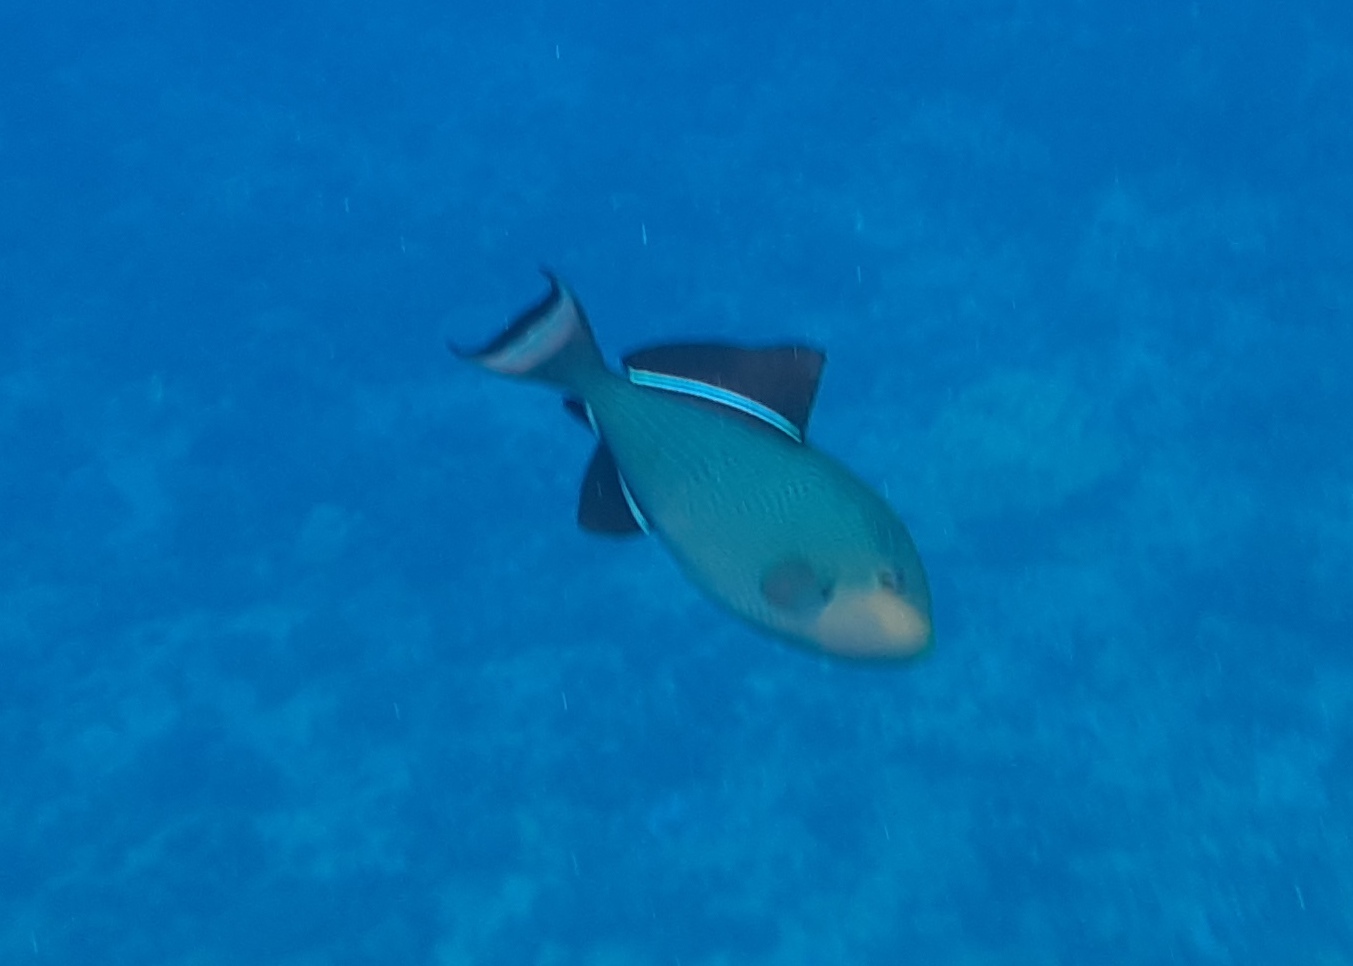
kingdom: Animalia
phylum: Chordata
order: Tetraodontiformes
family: Balistidae
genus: Melichthys
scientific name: Melichthys niger
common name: Black durgon
